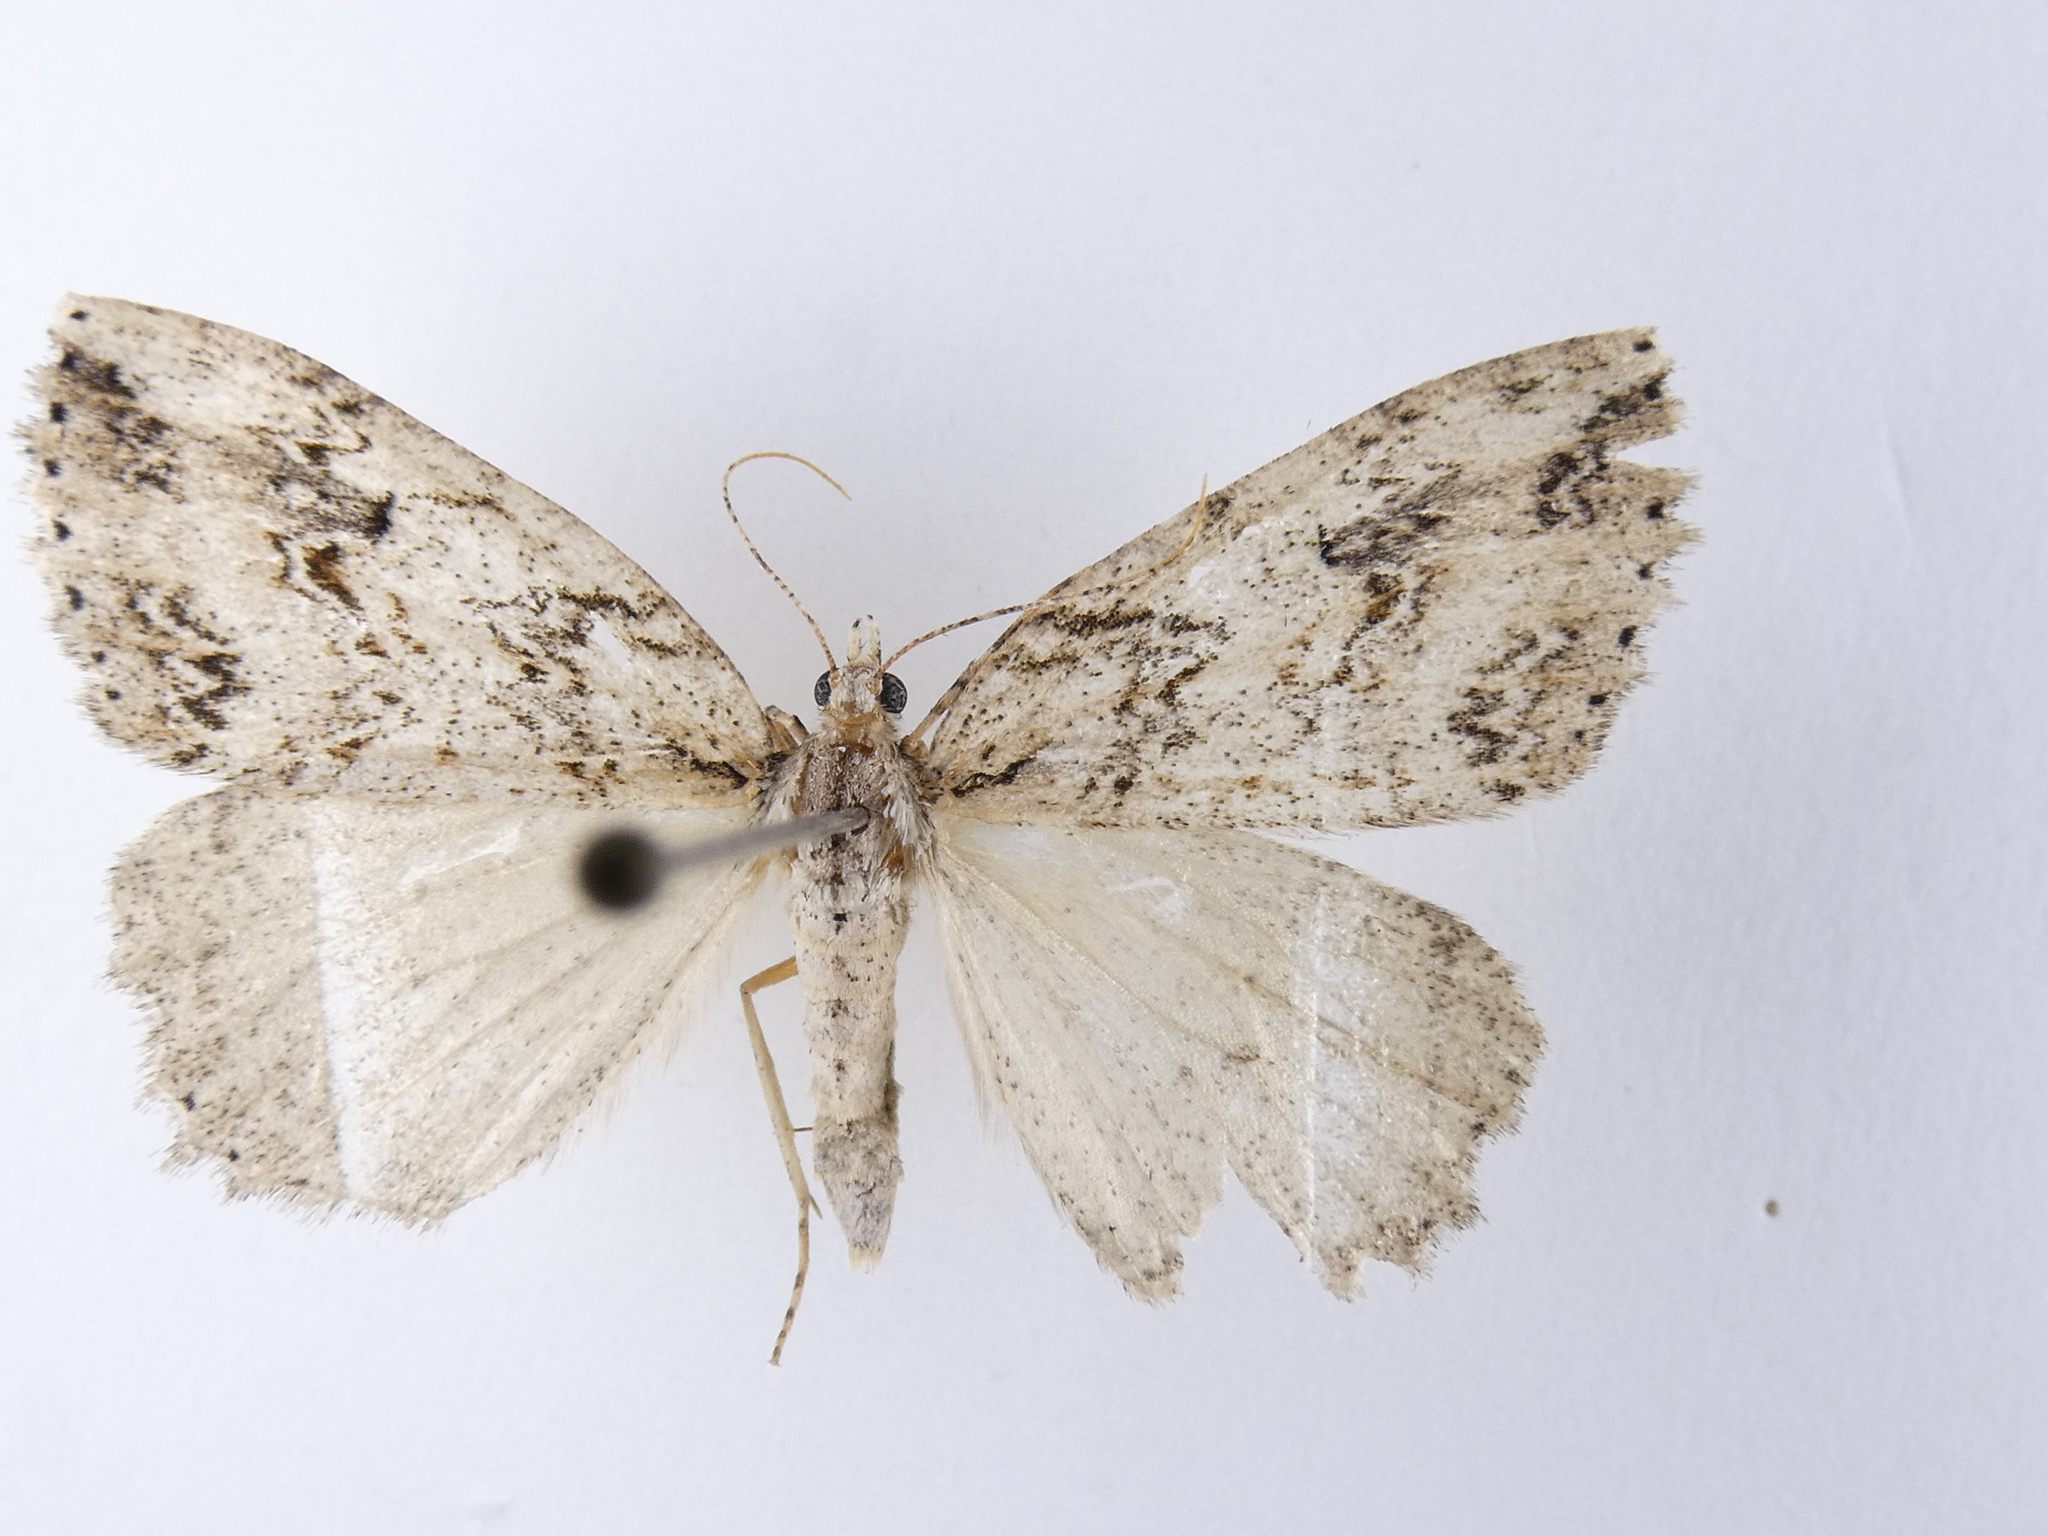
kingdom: Animalia
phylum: Arthropoda
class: Insecta
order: Lepidoptera
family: Geometridae
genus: Pseudocoremia
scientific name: Pseudocoremia rudisata
